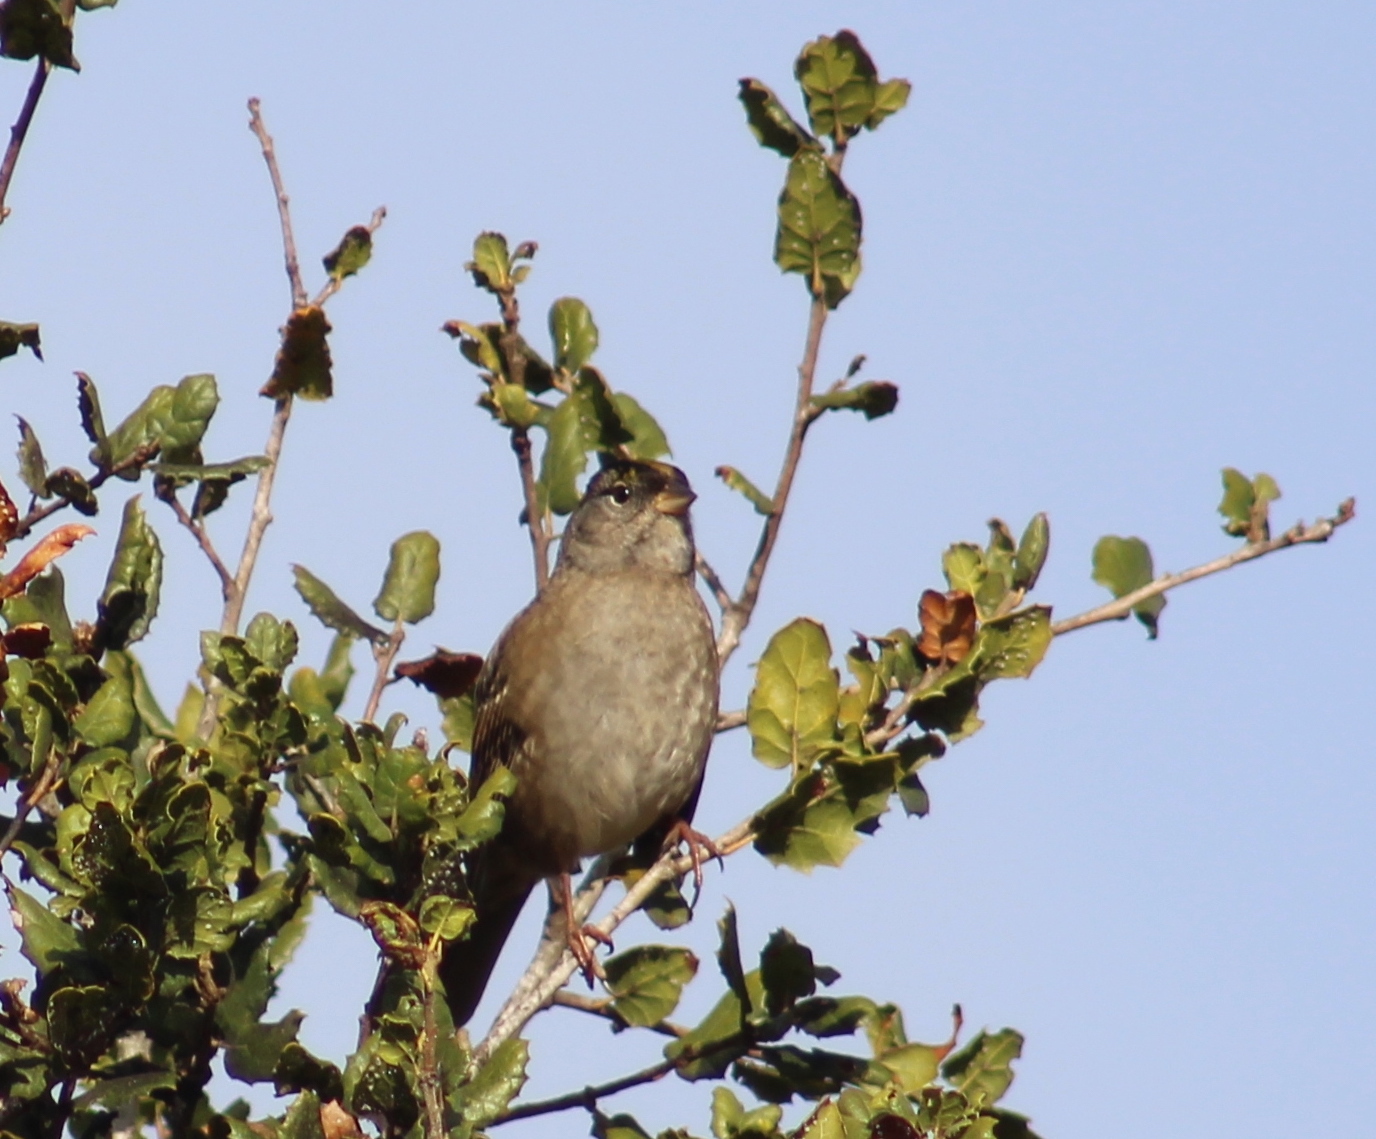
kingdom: Animalia
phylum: Chordata
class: Aves
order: Passeriformes
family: Passerellidae
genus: Zonotrichia
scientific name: Zonotrichia atricapilla
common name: Golden-crowned sparrow
